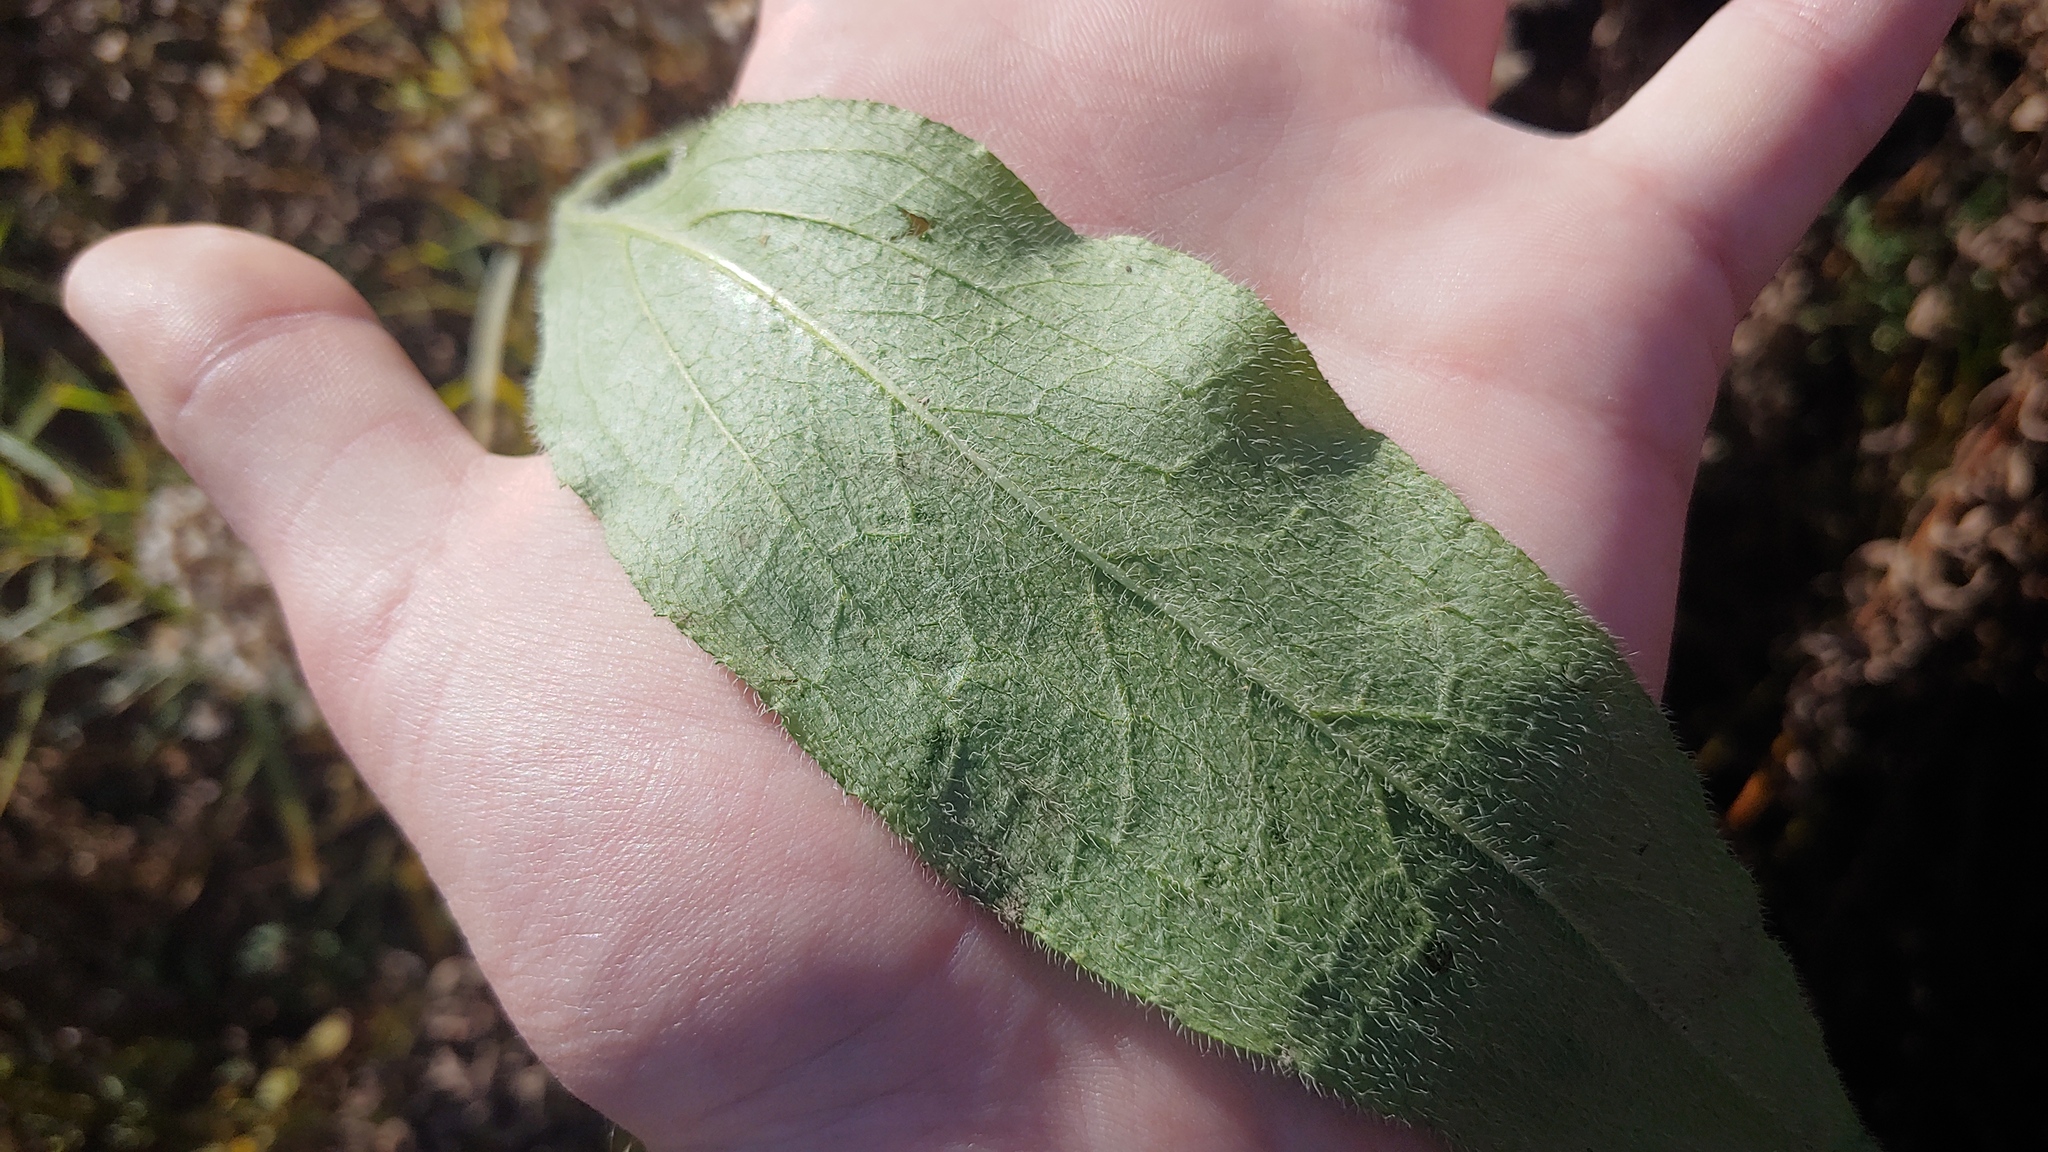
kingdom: Plantae
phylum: Tracheophyta
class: Magnoliopsida
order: Asterales
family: Asteraceae
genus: Rudbeckia
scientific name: Rudbeckia hirta
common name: Black-eyed-susan
